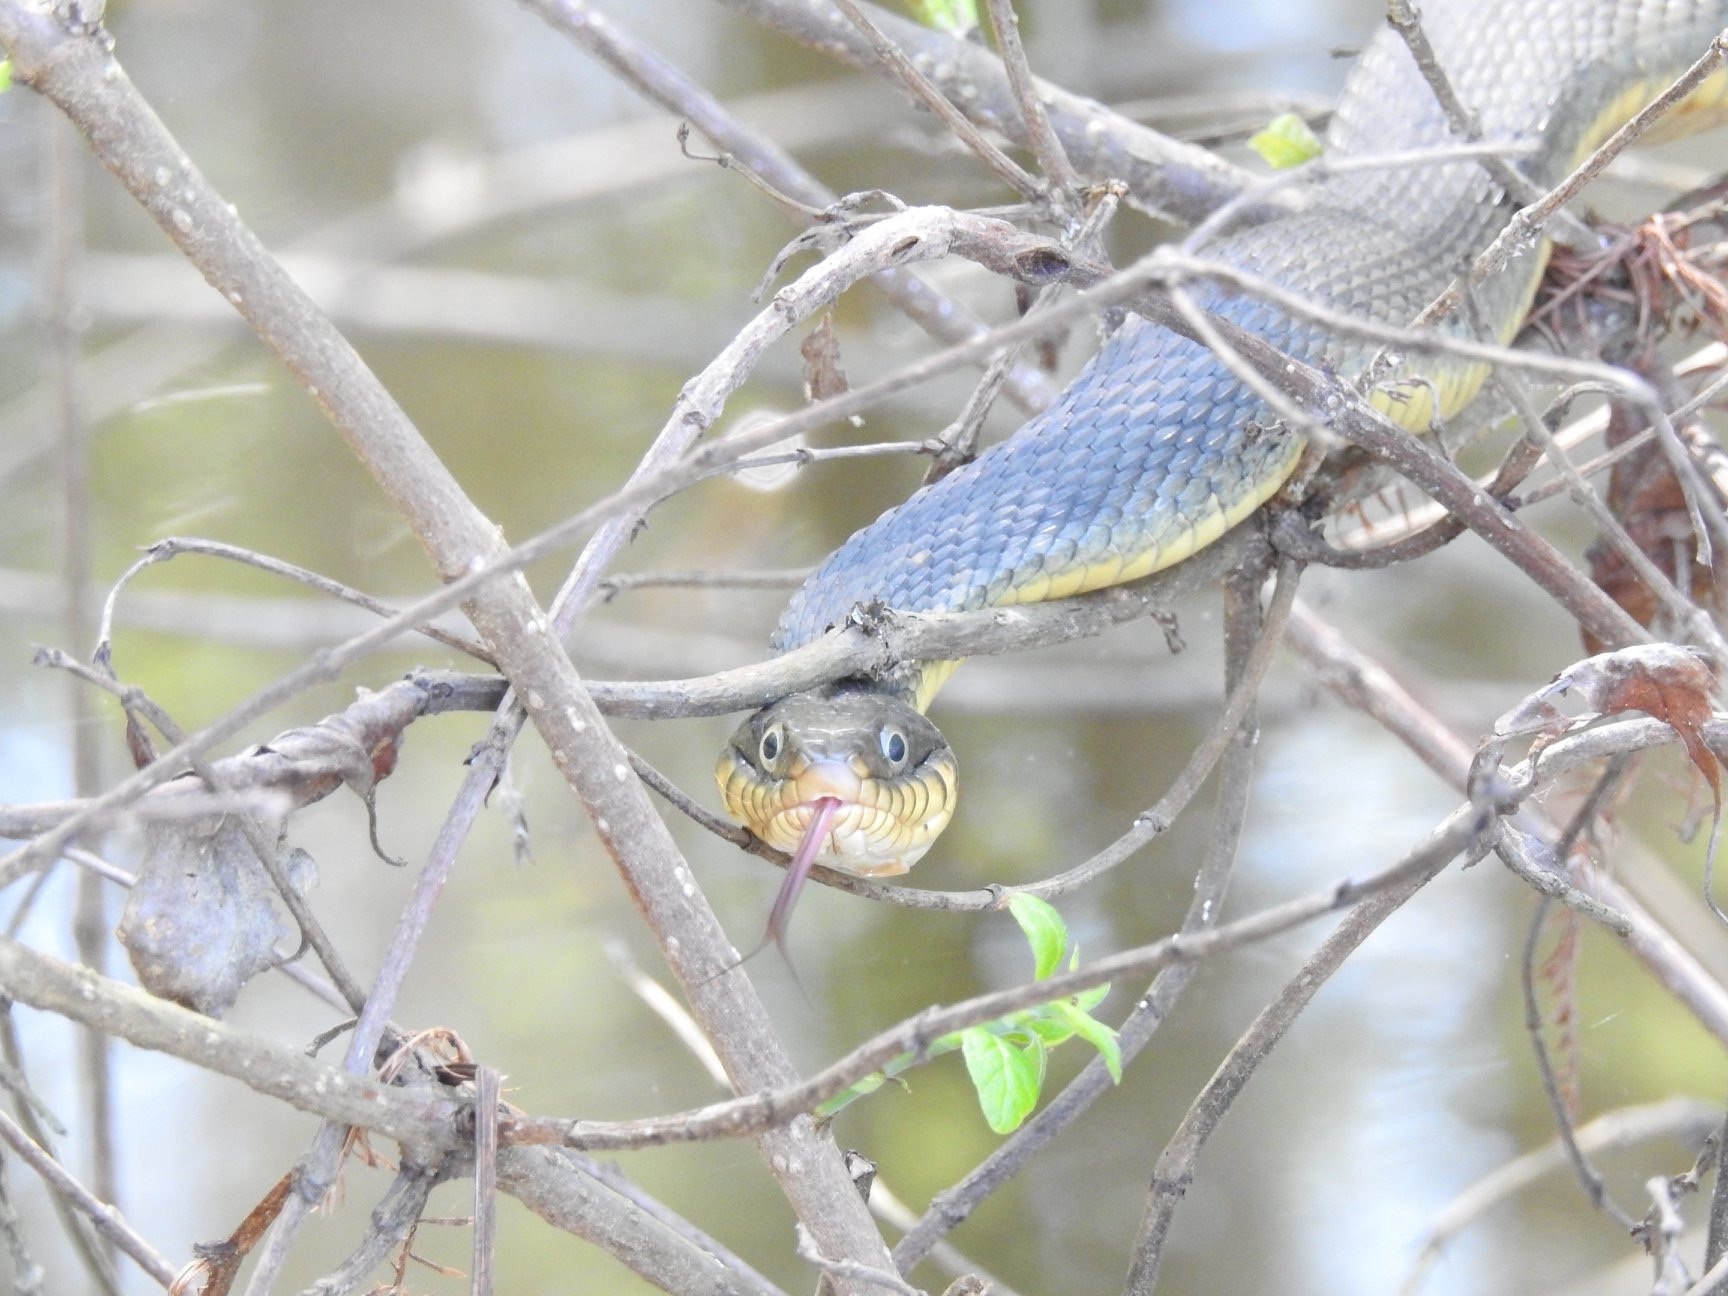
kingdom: Animalia
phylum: Chordata
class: Squamata
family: Colubridae
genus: Nerodia
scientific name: Nerodia erythrogaster
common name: Plainbelly water snake
